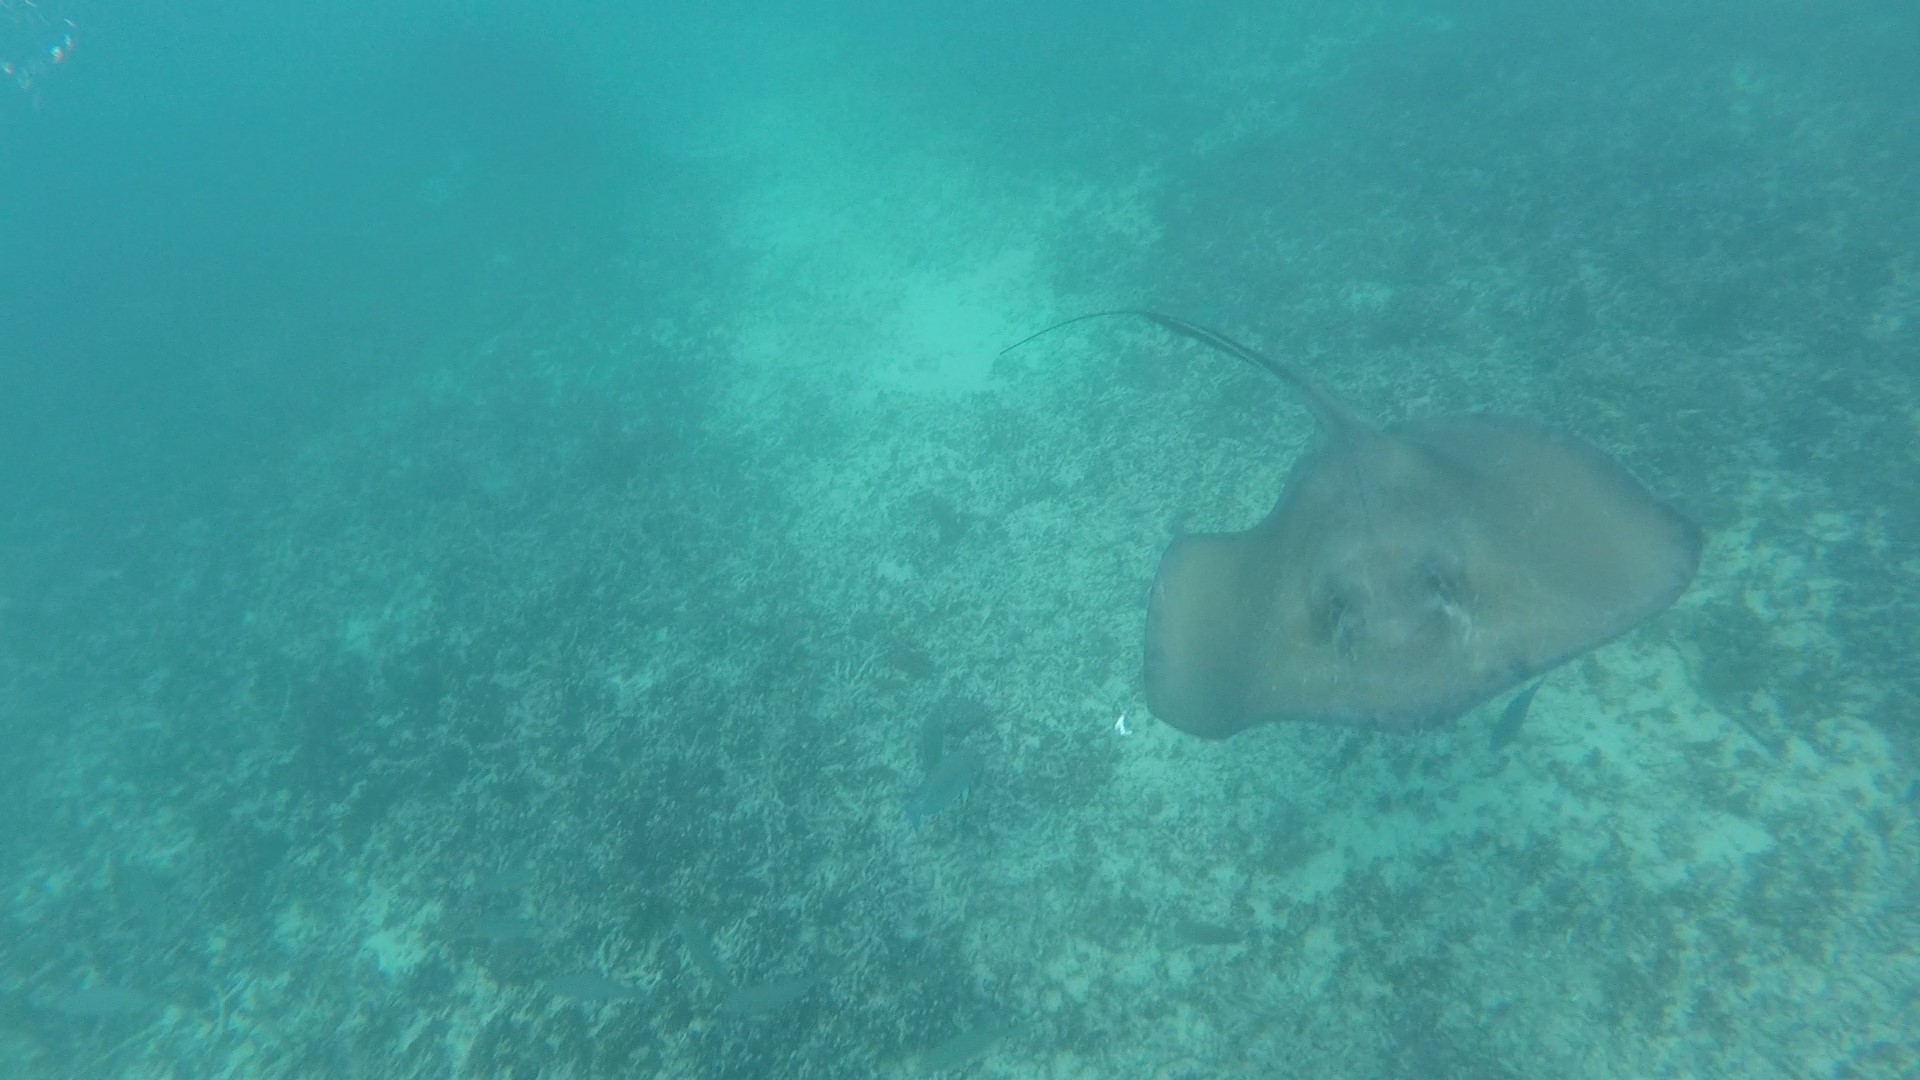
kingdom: Animalia
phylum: Chordata
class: Elasmobranchii
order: Myliobatiformes
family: Dasyatidae
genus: Hypanus
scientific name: Hypanus americanus
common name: Southern stingray
